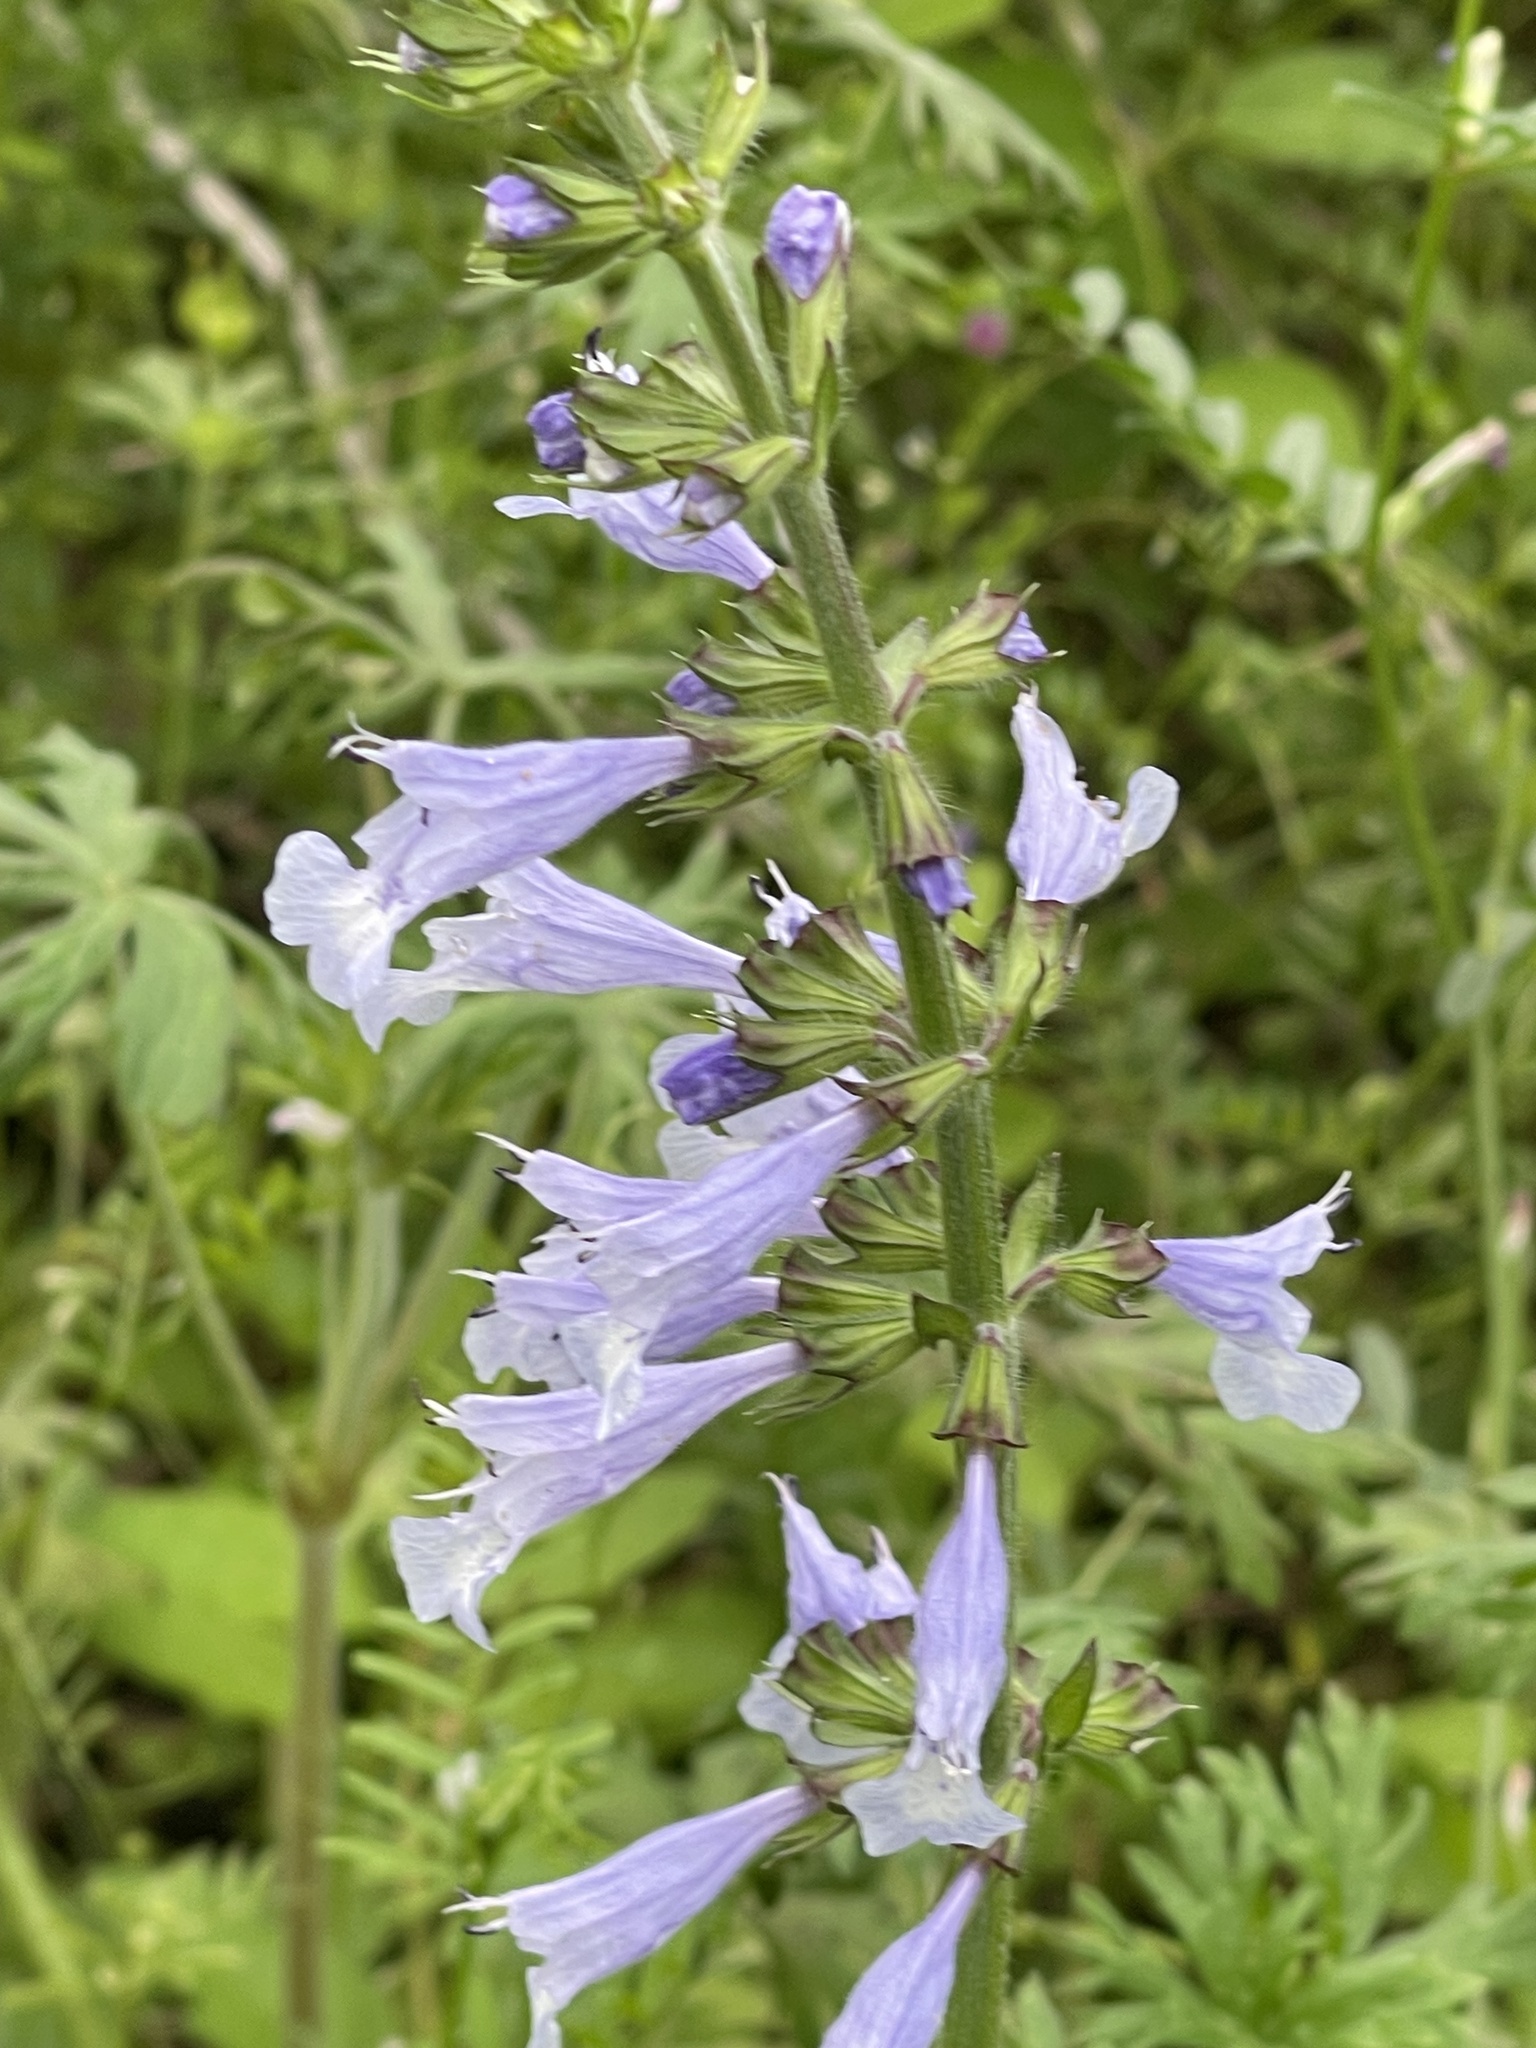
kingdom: Plantae
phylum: Tracheophyta
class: Magnoliopsida
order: Lamiales
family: Lamiaceae
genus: Salvia
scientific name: Salvia lyrata
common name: Cancerweed
